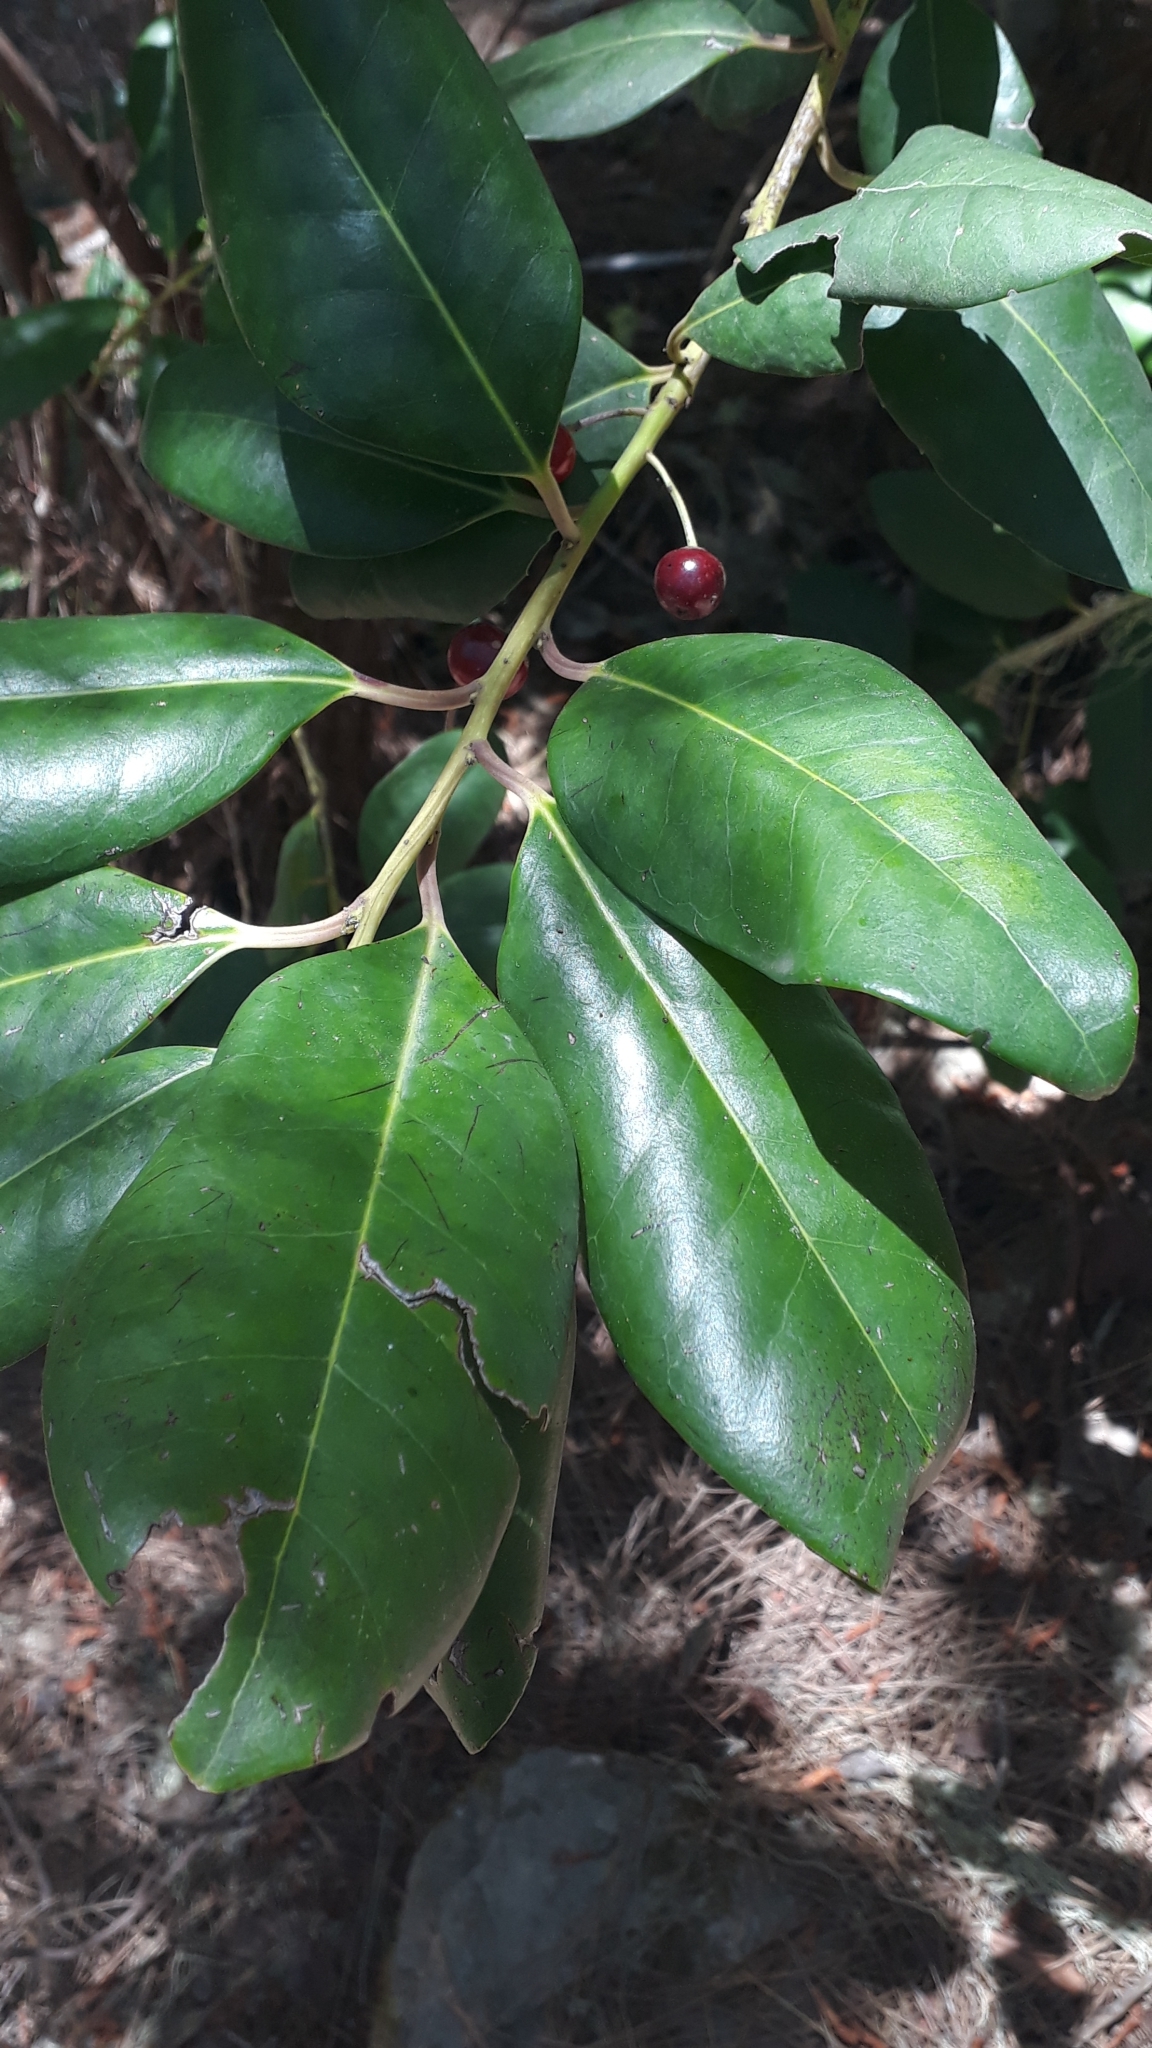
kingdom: Plantae
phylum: Tracheophyta
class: Magnoliopsida
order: Aquifoliales
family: Aquifoliaceae
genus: Ilex
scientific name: Ilex canariensis
